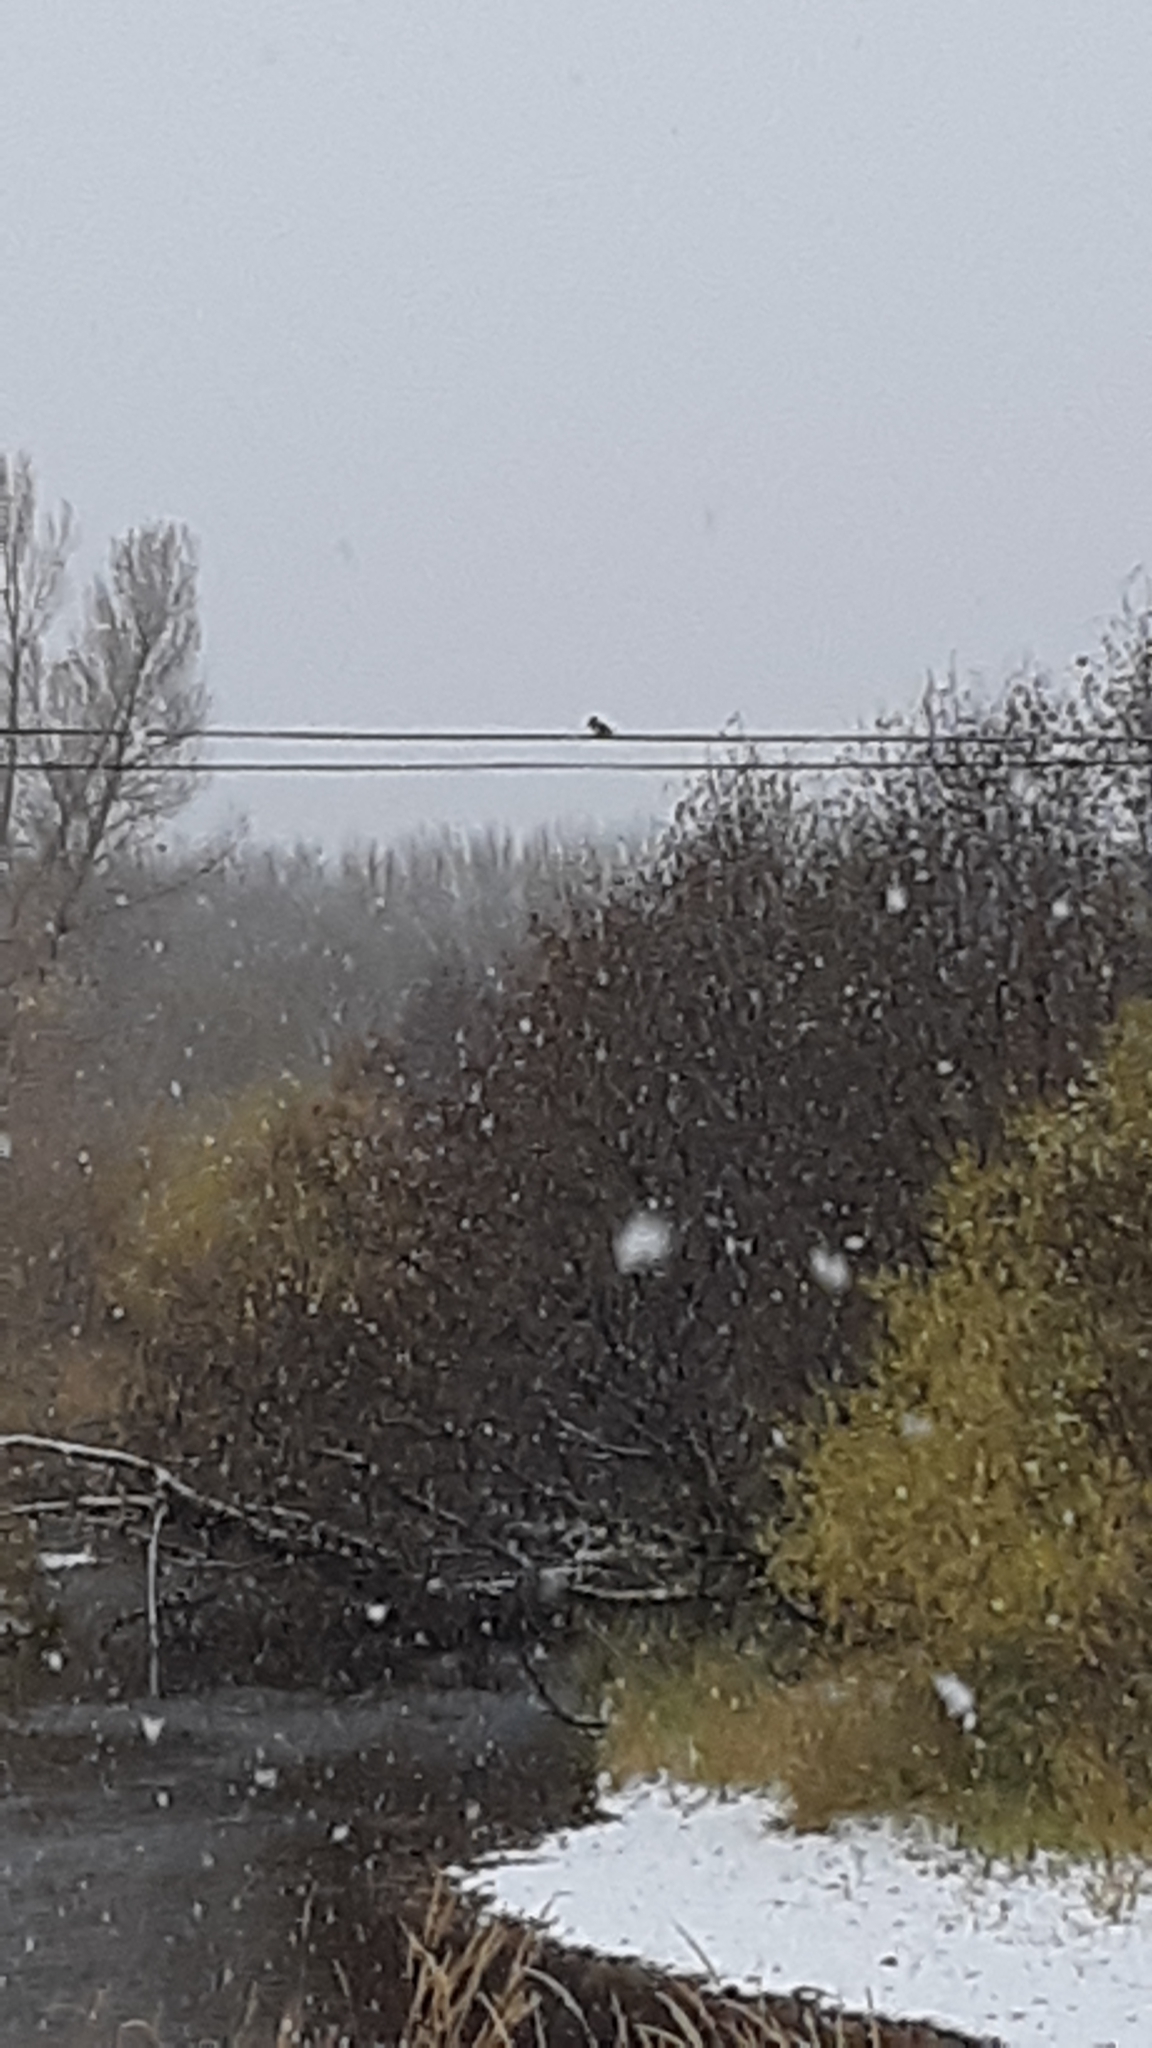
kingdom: Animalia
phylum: Chordata
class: Aves
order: Coraciiformes
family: Alcedinidae
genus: Megaceryle
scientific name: Megaceryle alcyon
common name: Belted kingfisher
